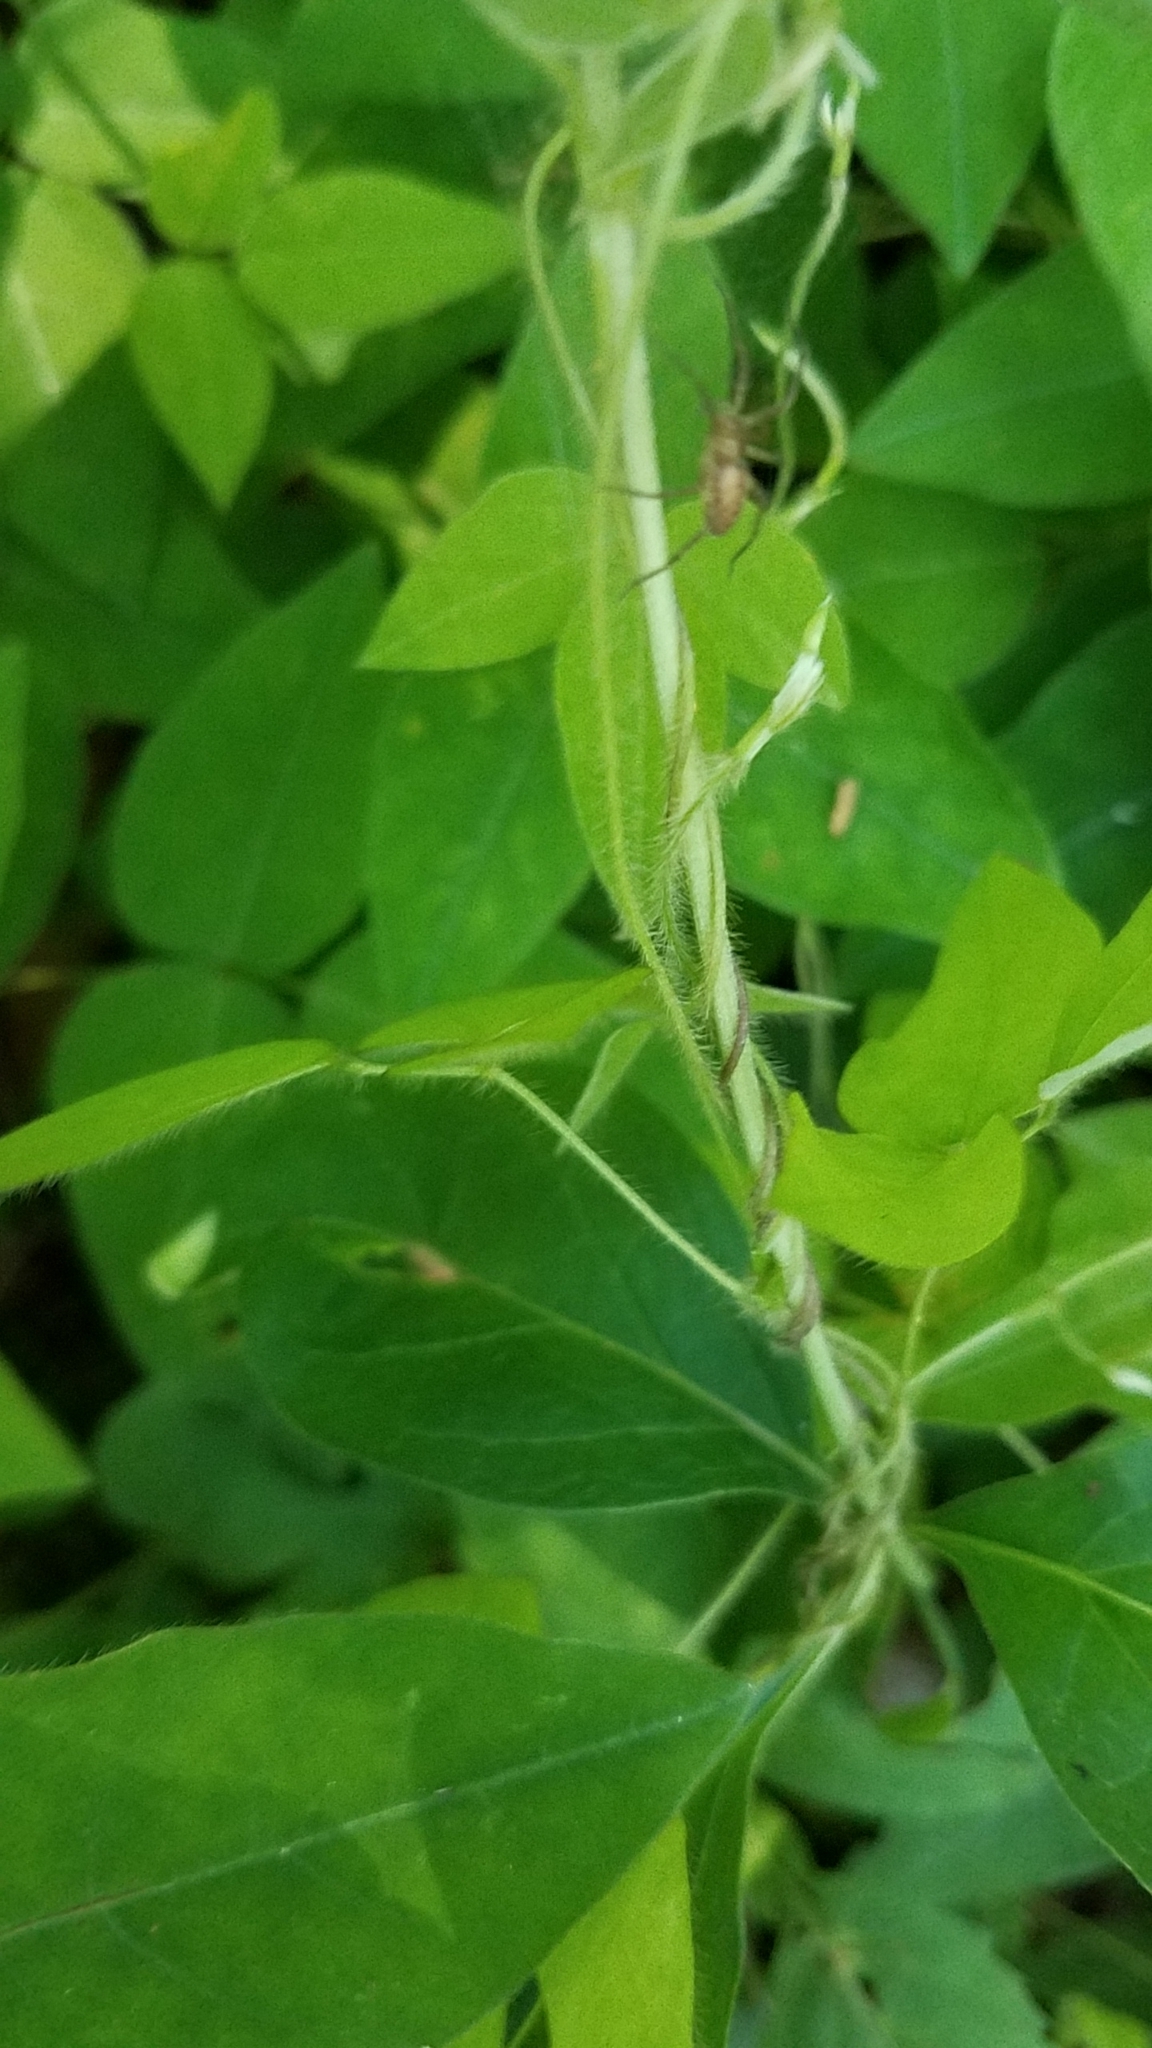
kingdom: Plantae
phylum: Tracheophyta
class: Magnoliopsida
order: Gentianales
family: Apocynaceae
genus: Asclepias
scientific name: Asclepias quadrifolia
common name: Whorled milkweed
